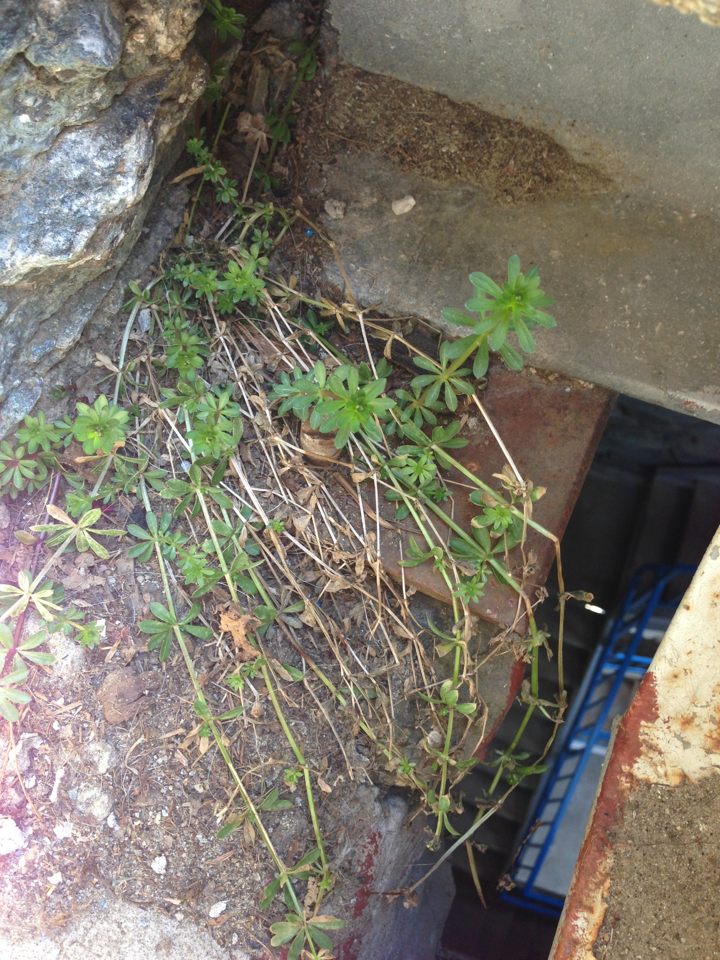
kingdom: Plantae
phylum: Tracheophyta
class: Magnoliopsida
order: Gentianales
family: Rubiaceae
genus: Galium
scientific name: Galium mollugo
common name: Hedge bedstraw
